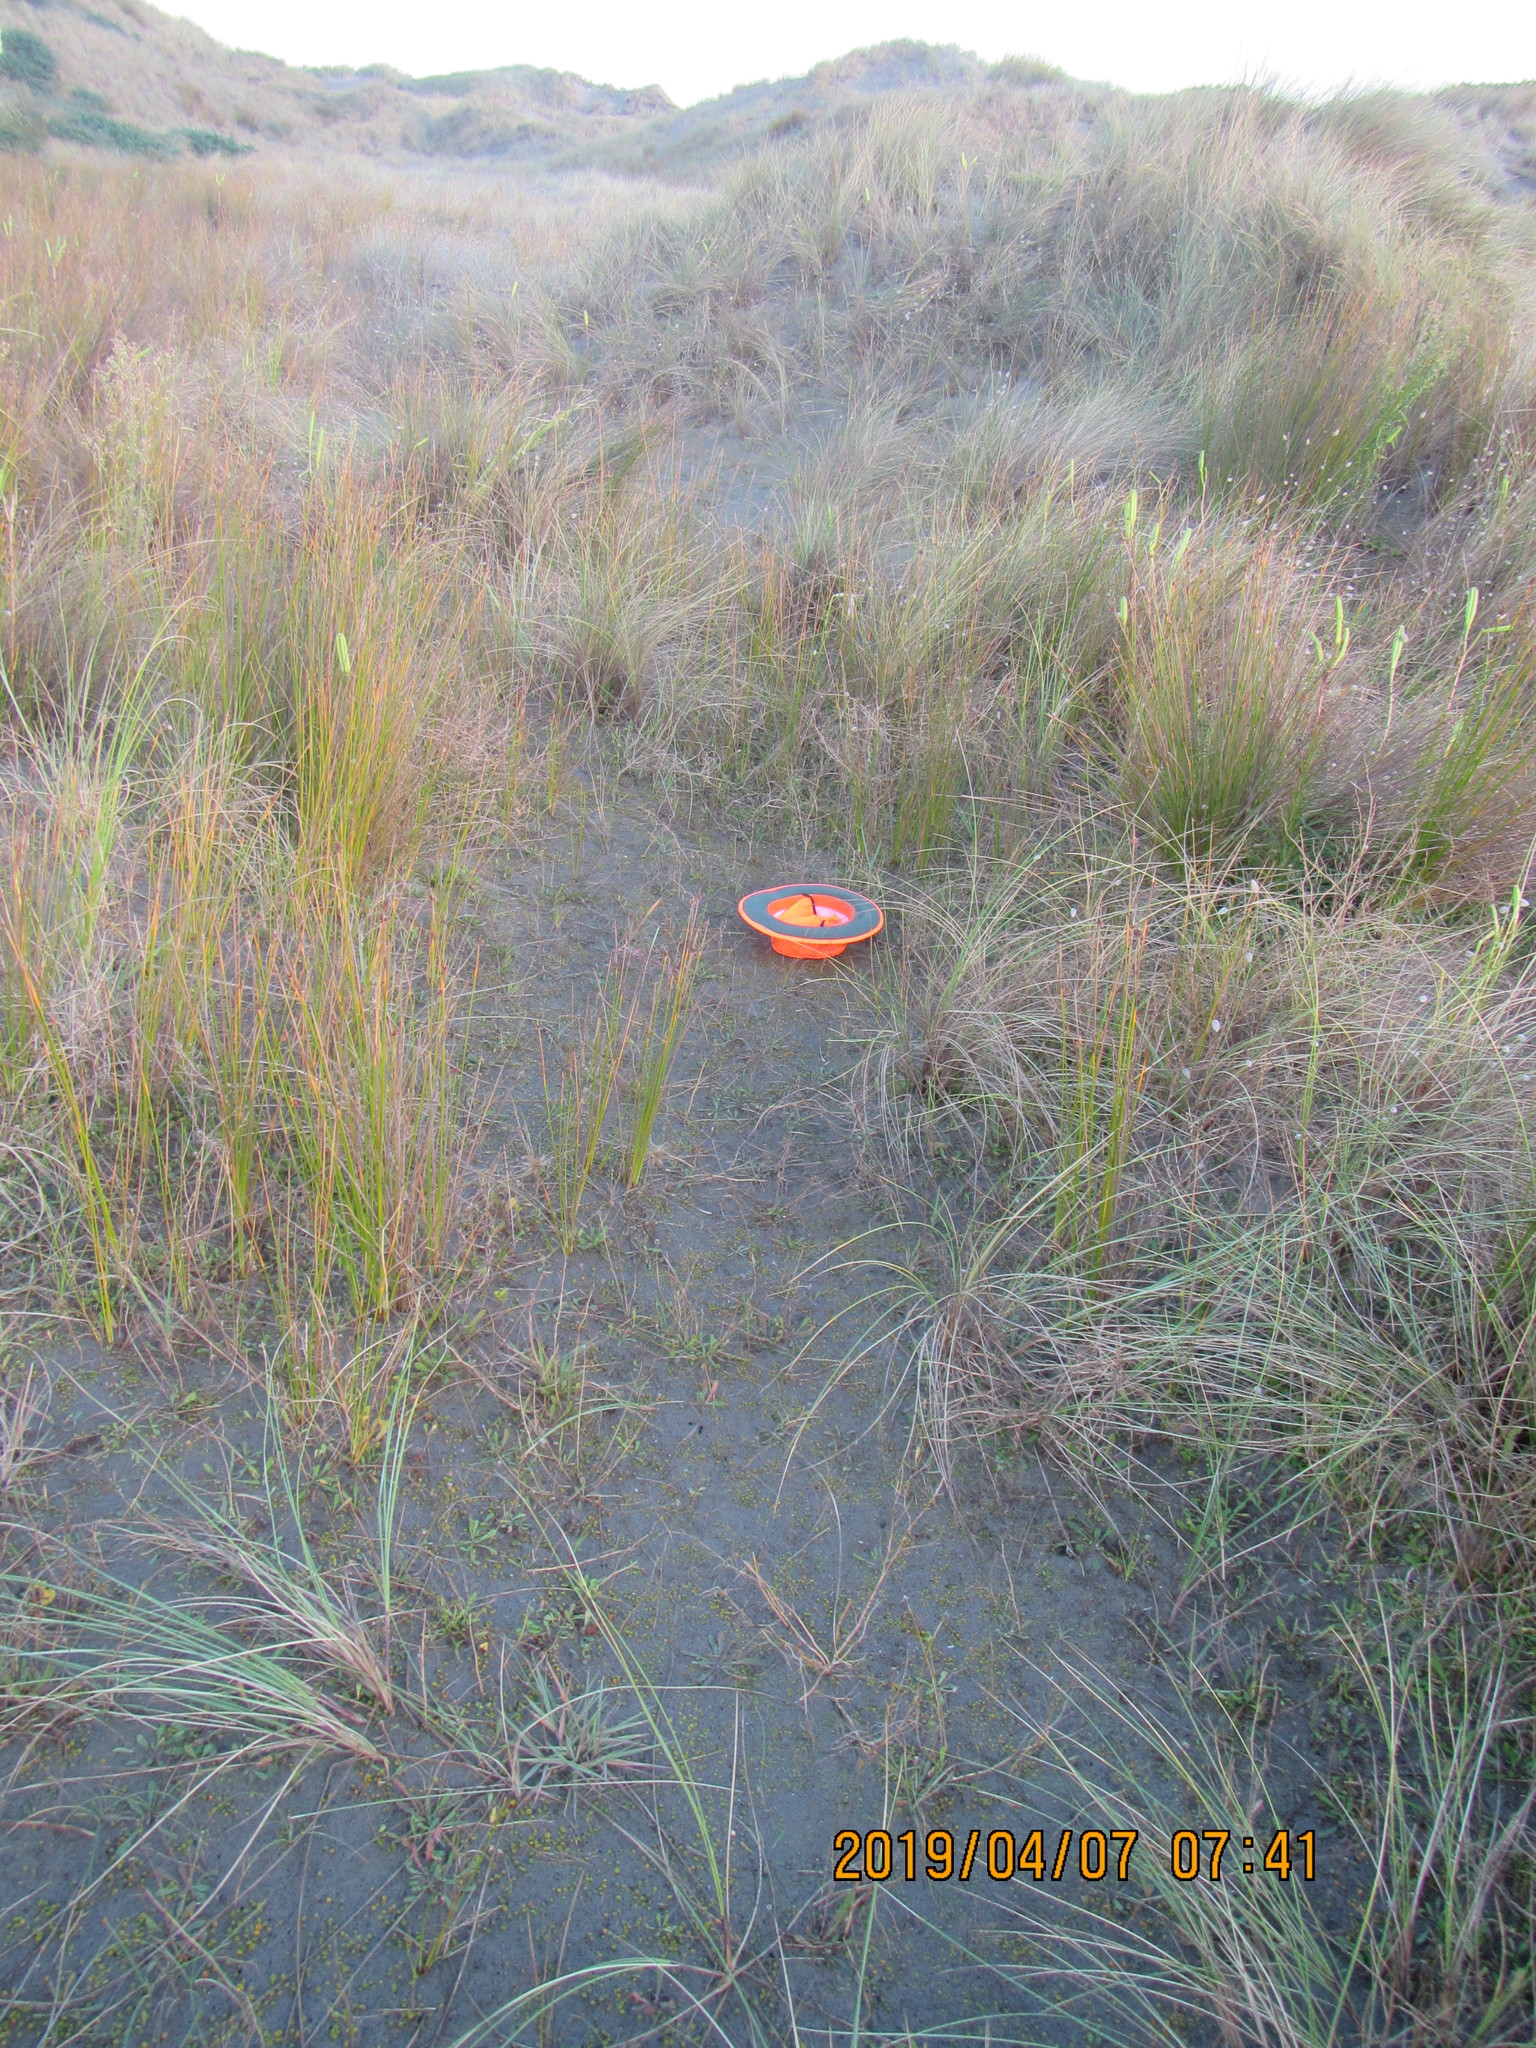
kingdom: Plantae
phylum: Tracheophyta
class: Magnoliopsida
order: Asterales
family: Goodeniaceae
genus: Goodenia
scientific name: Goodenia heenanii
